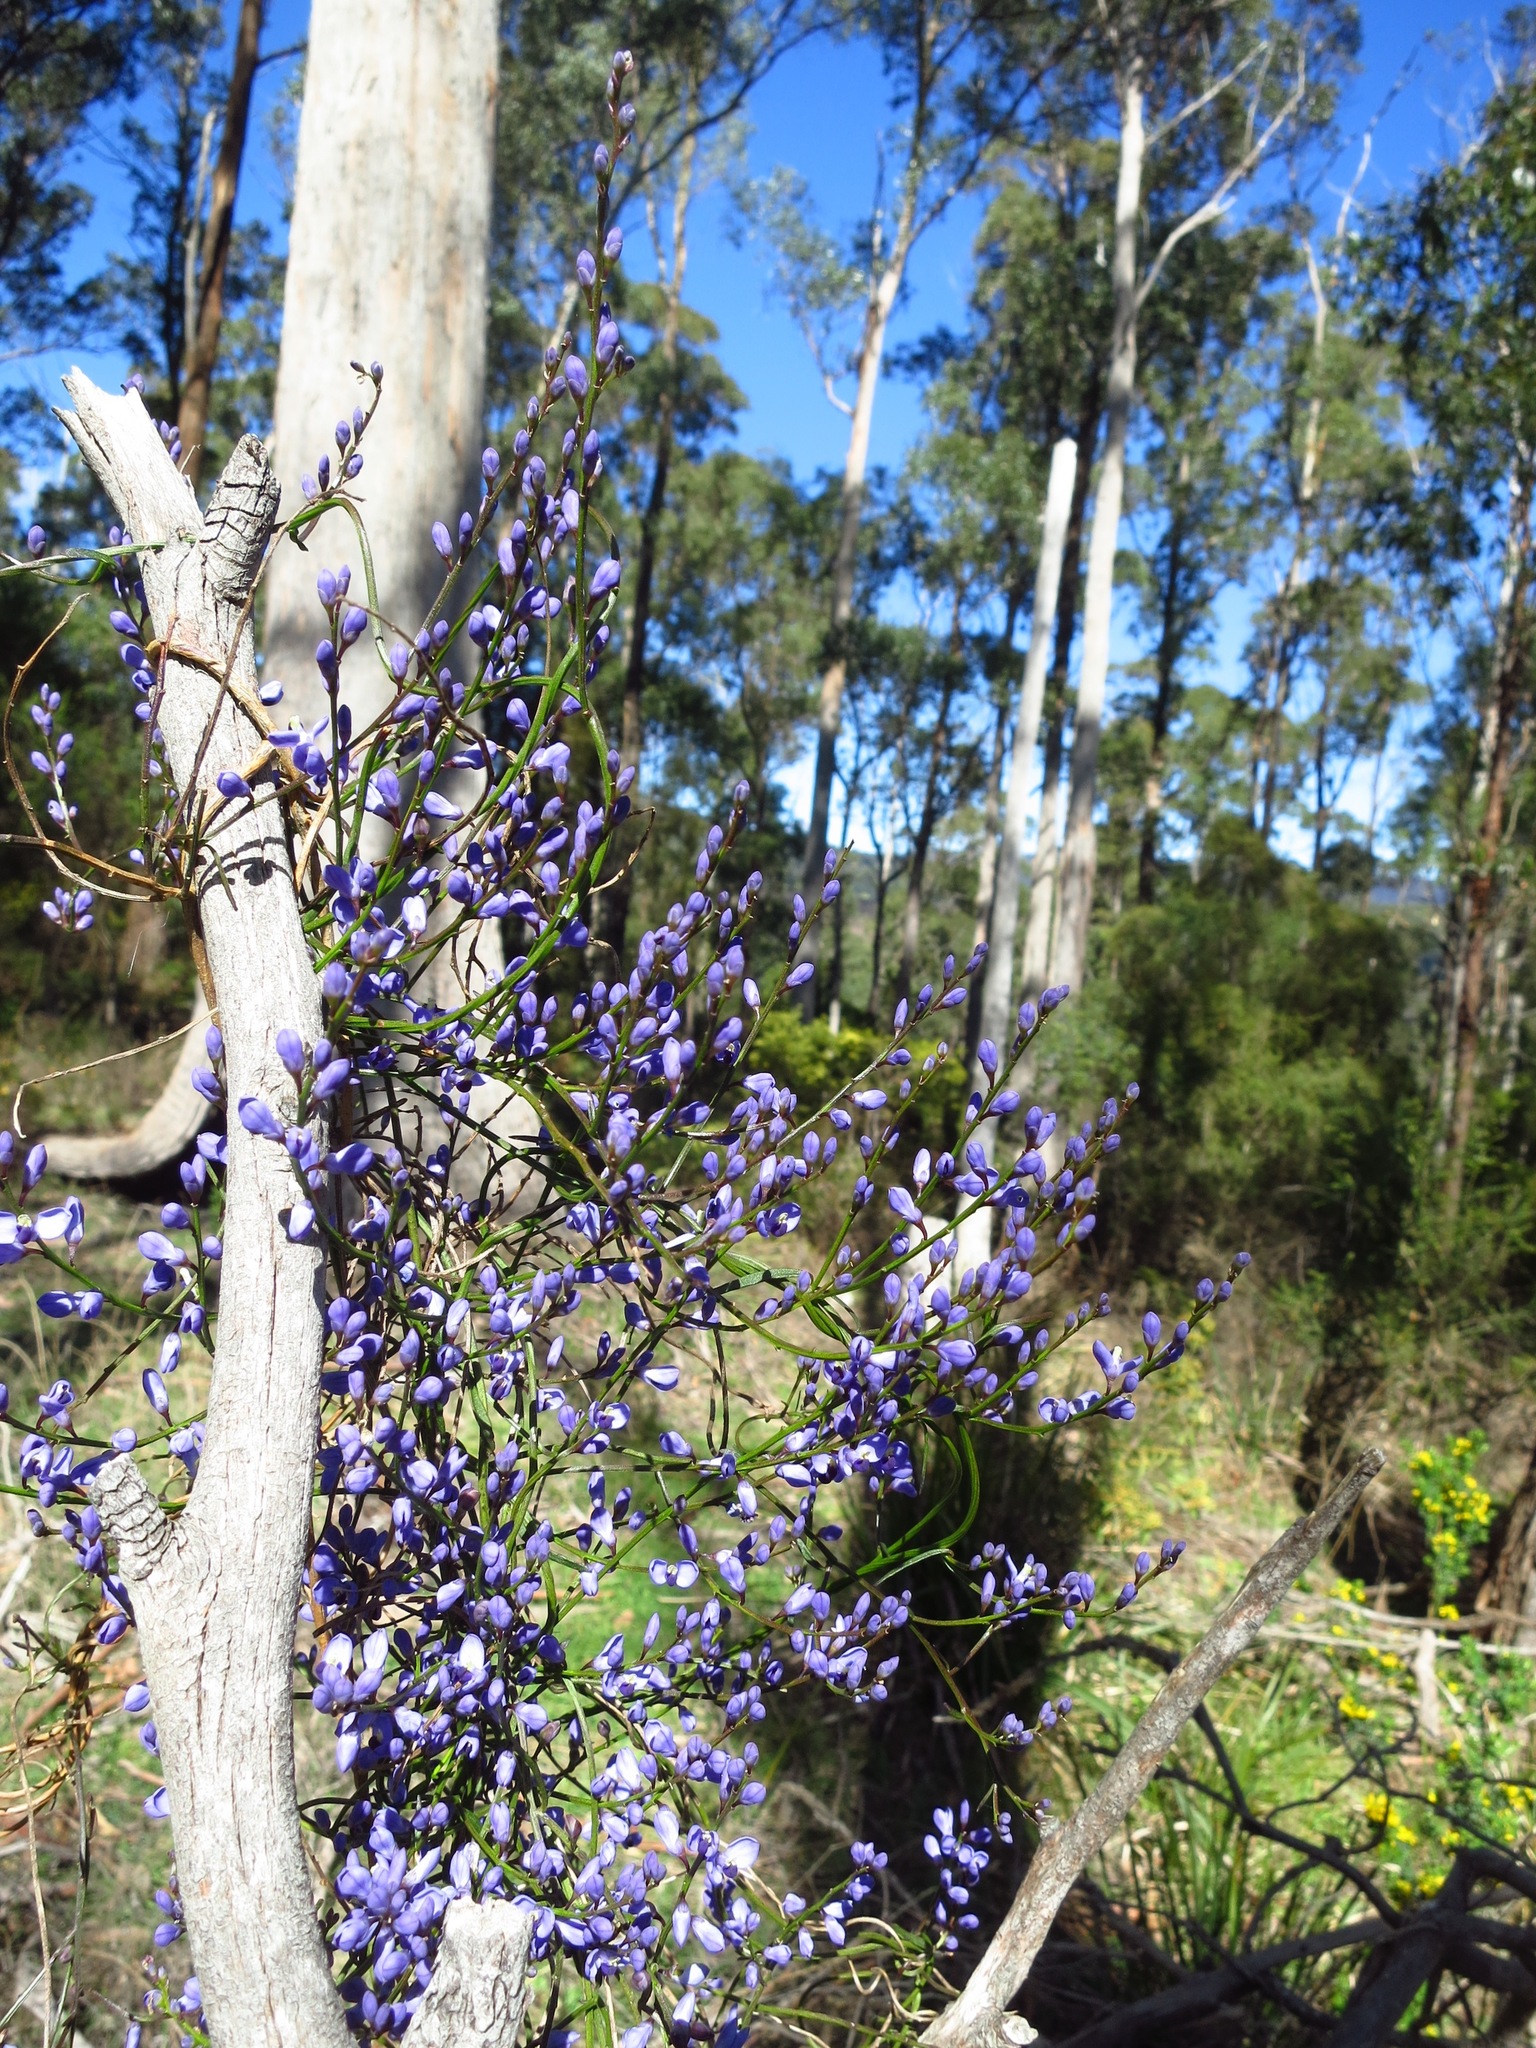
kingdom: Plantae
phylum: Tracheophyta
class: Magnoliopsida
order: Fabales
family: Polygalaceae
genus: Comesperma
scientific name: Comesperma volubile
